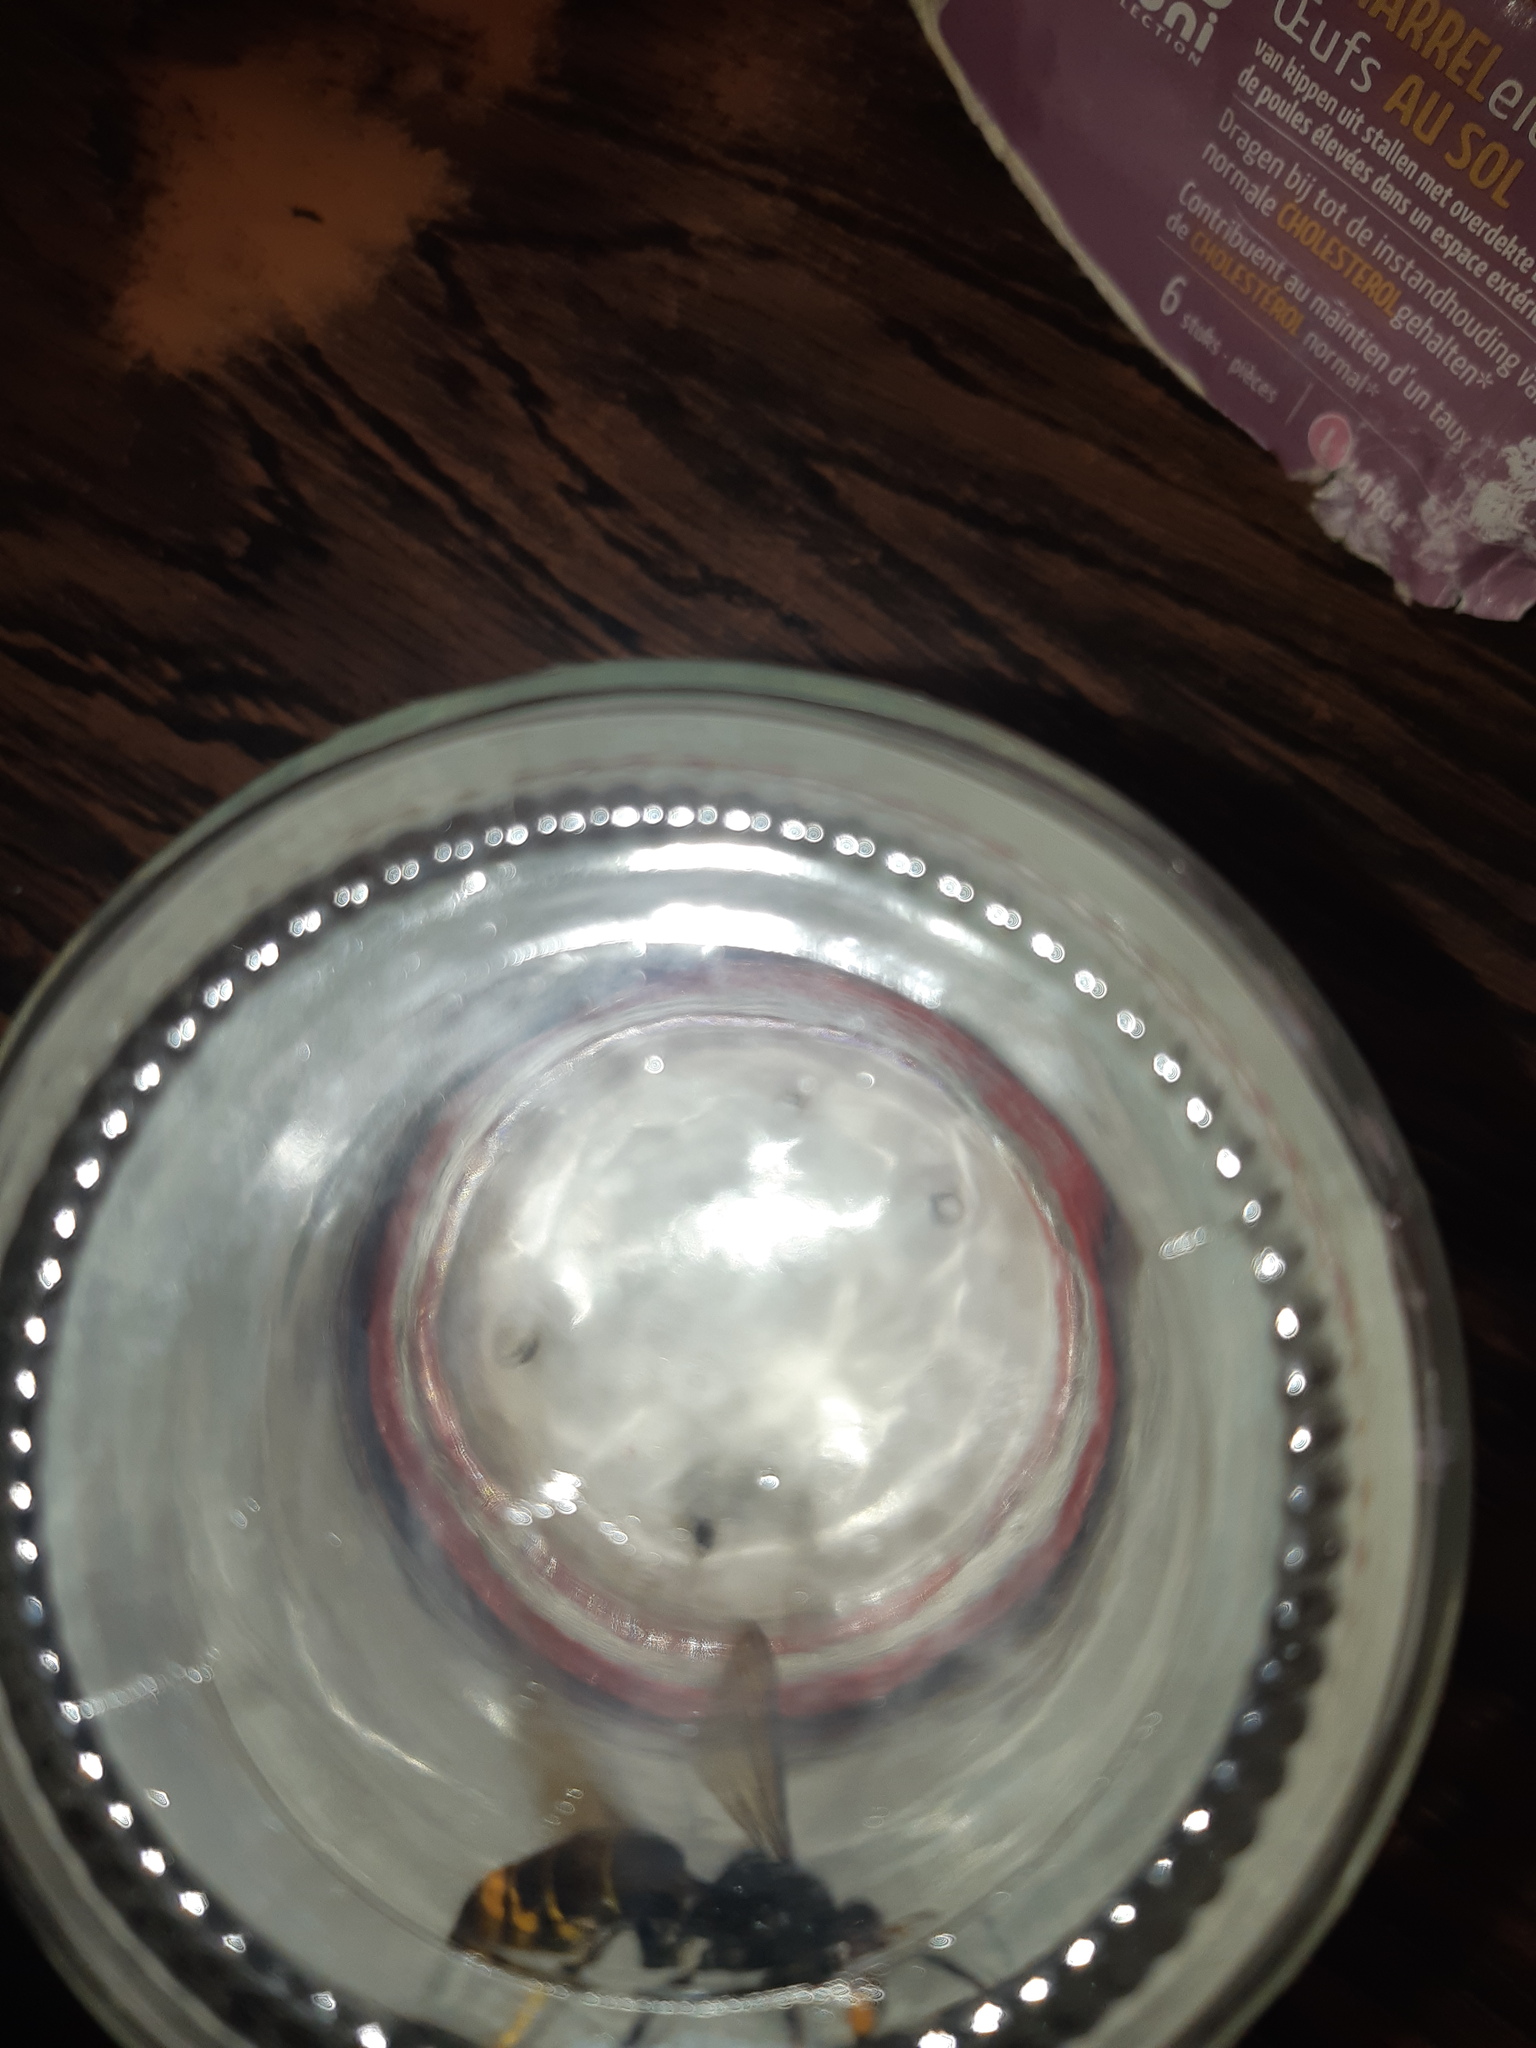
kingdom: Animalia
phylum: Arthropoda
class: Insecta
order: Hymenoptera
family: Vespidae
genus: Vespa
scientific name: Vespa velutina
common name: Asian hornet
